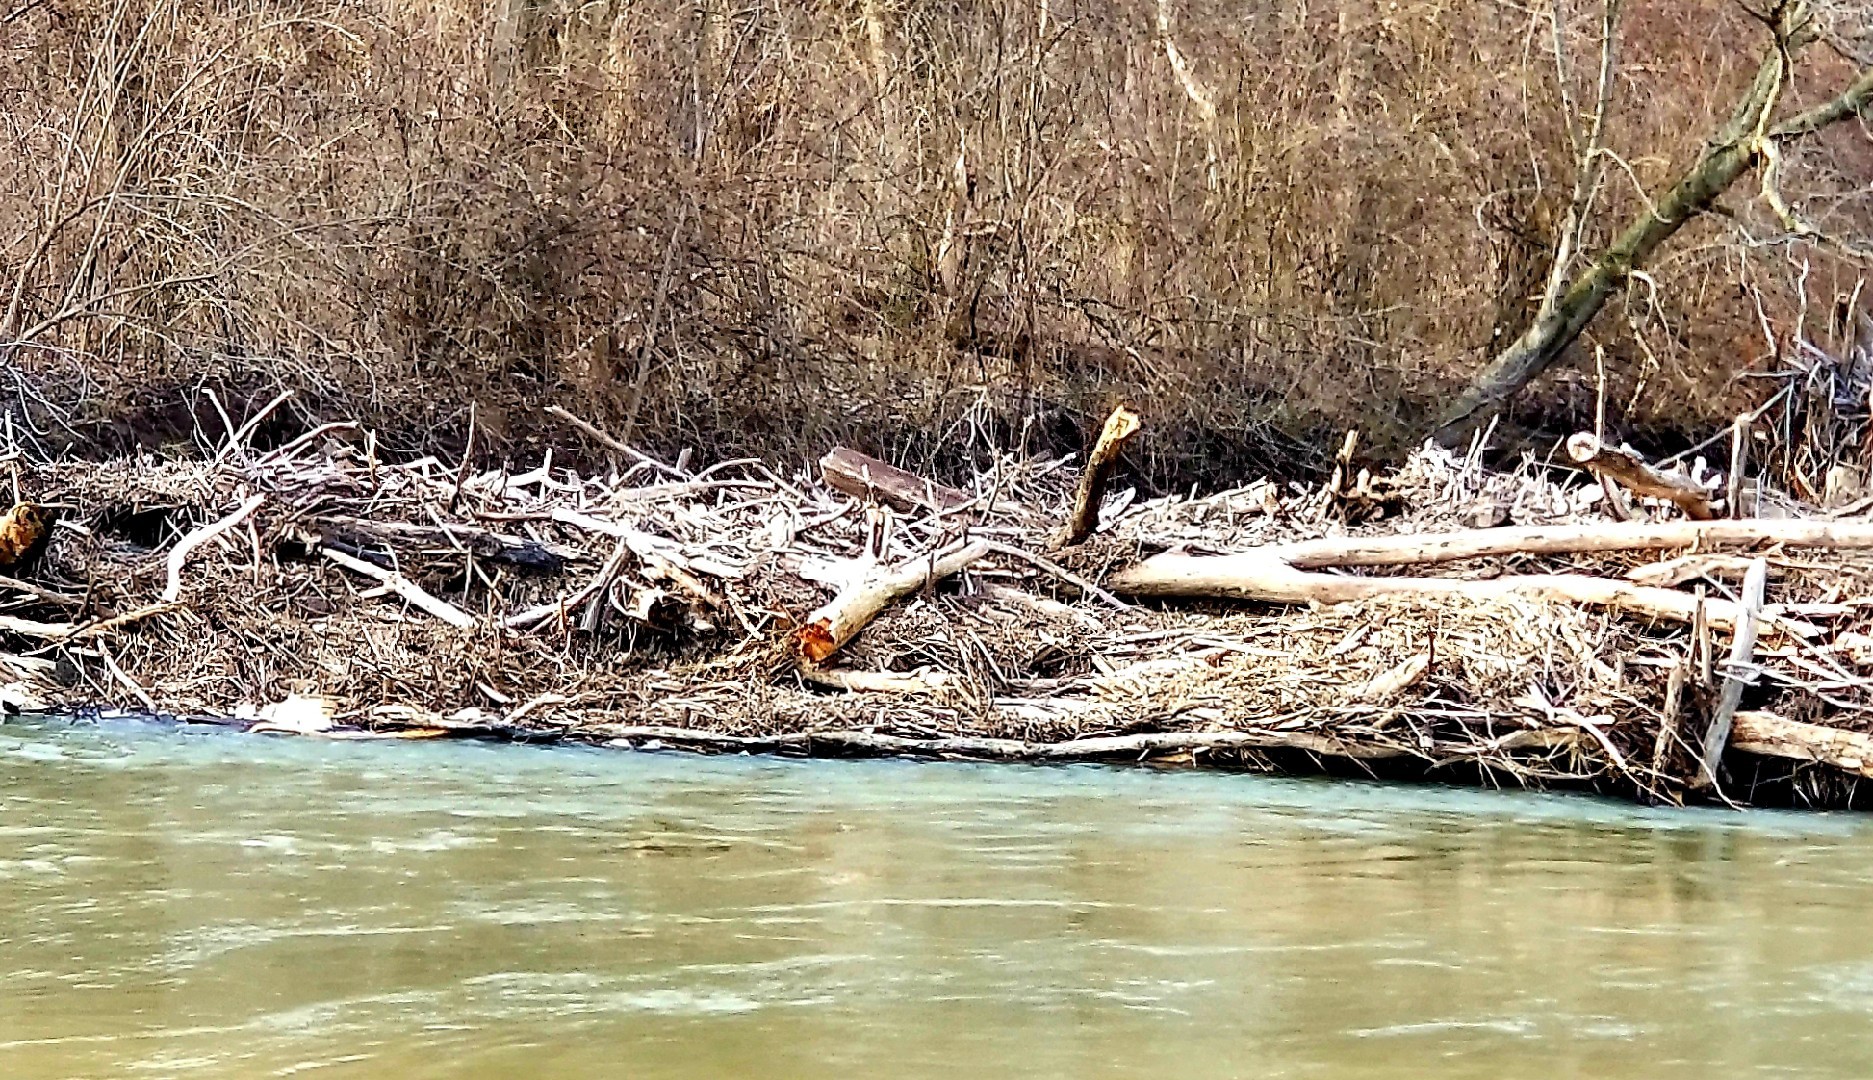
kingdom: Animalia
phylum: Chordata
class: Mammalia
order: Rodentia
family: Castoridae
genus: Castor
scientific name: Castor canadensis
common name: American beaver
